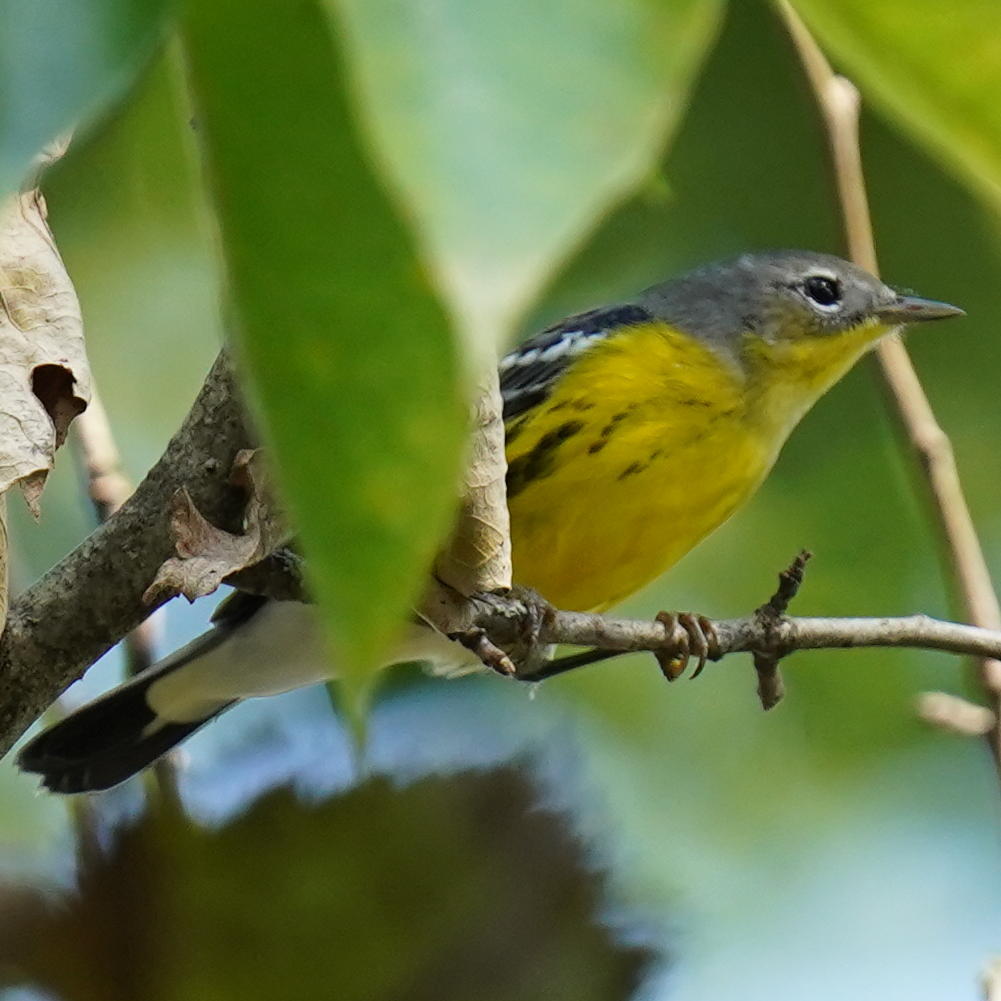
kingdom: Animalia
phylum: Chordata
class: Aves
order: Passeriformes
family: Parulidae
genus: Setophaga
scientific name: Setophaga magnolia
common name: Magnolia warbler
